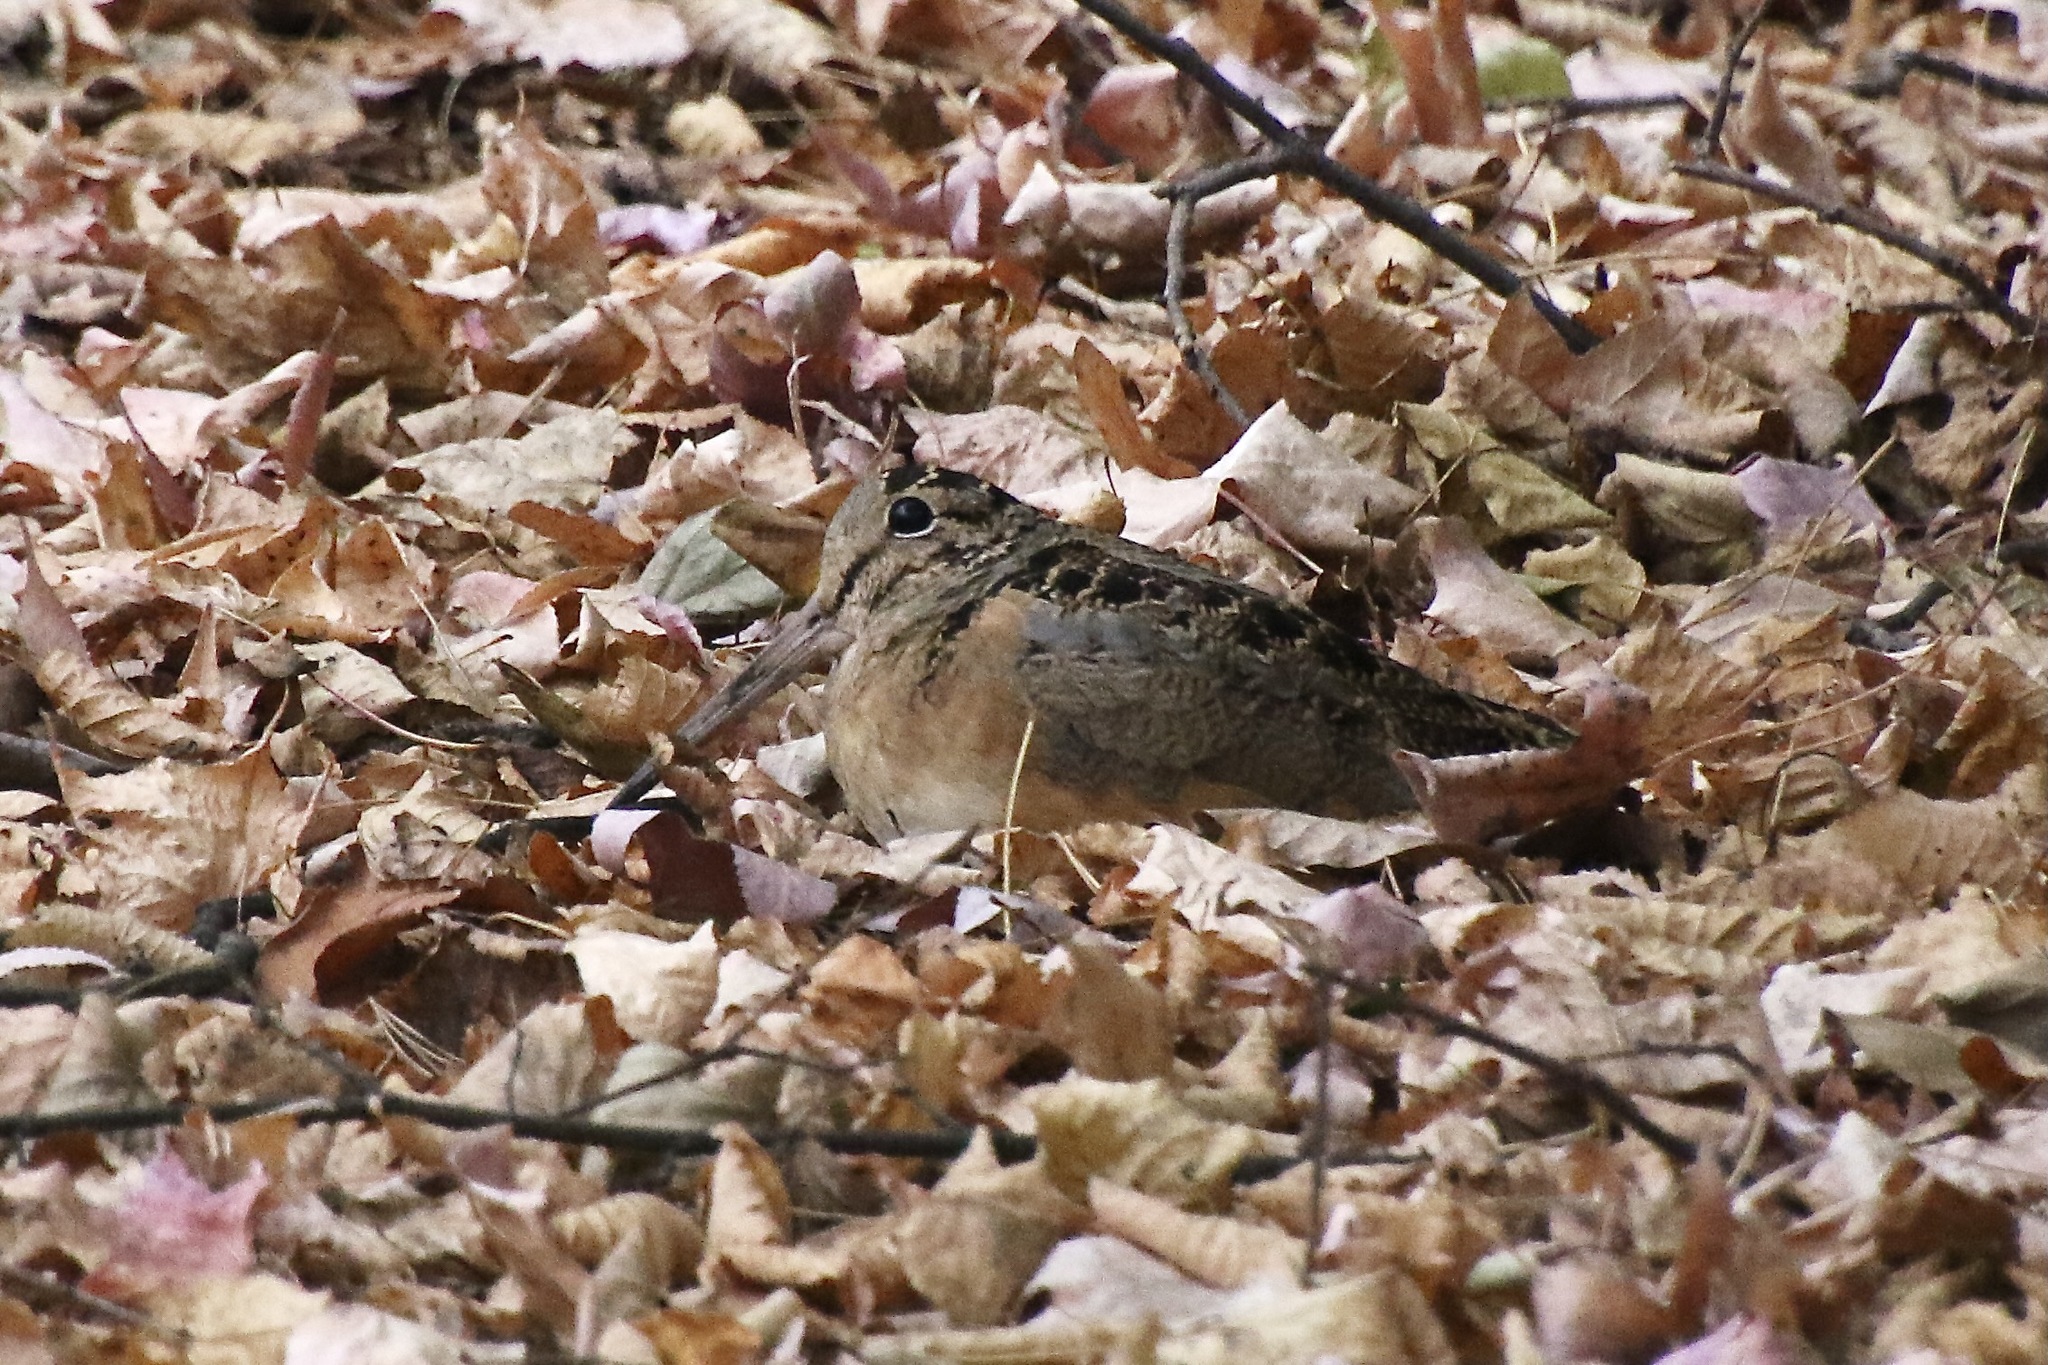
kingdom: Animalia
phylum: Chordata
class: Aves
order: Charadriiformes
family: Scolopacidae
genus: Scolopax
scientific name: Scolopax minor
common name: American woodcock
